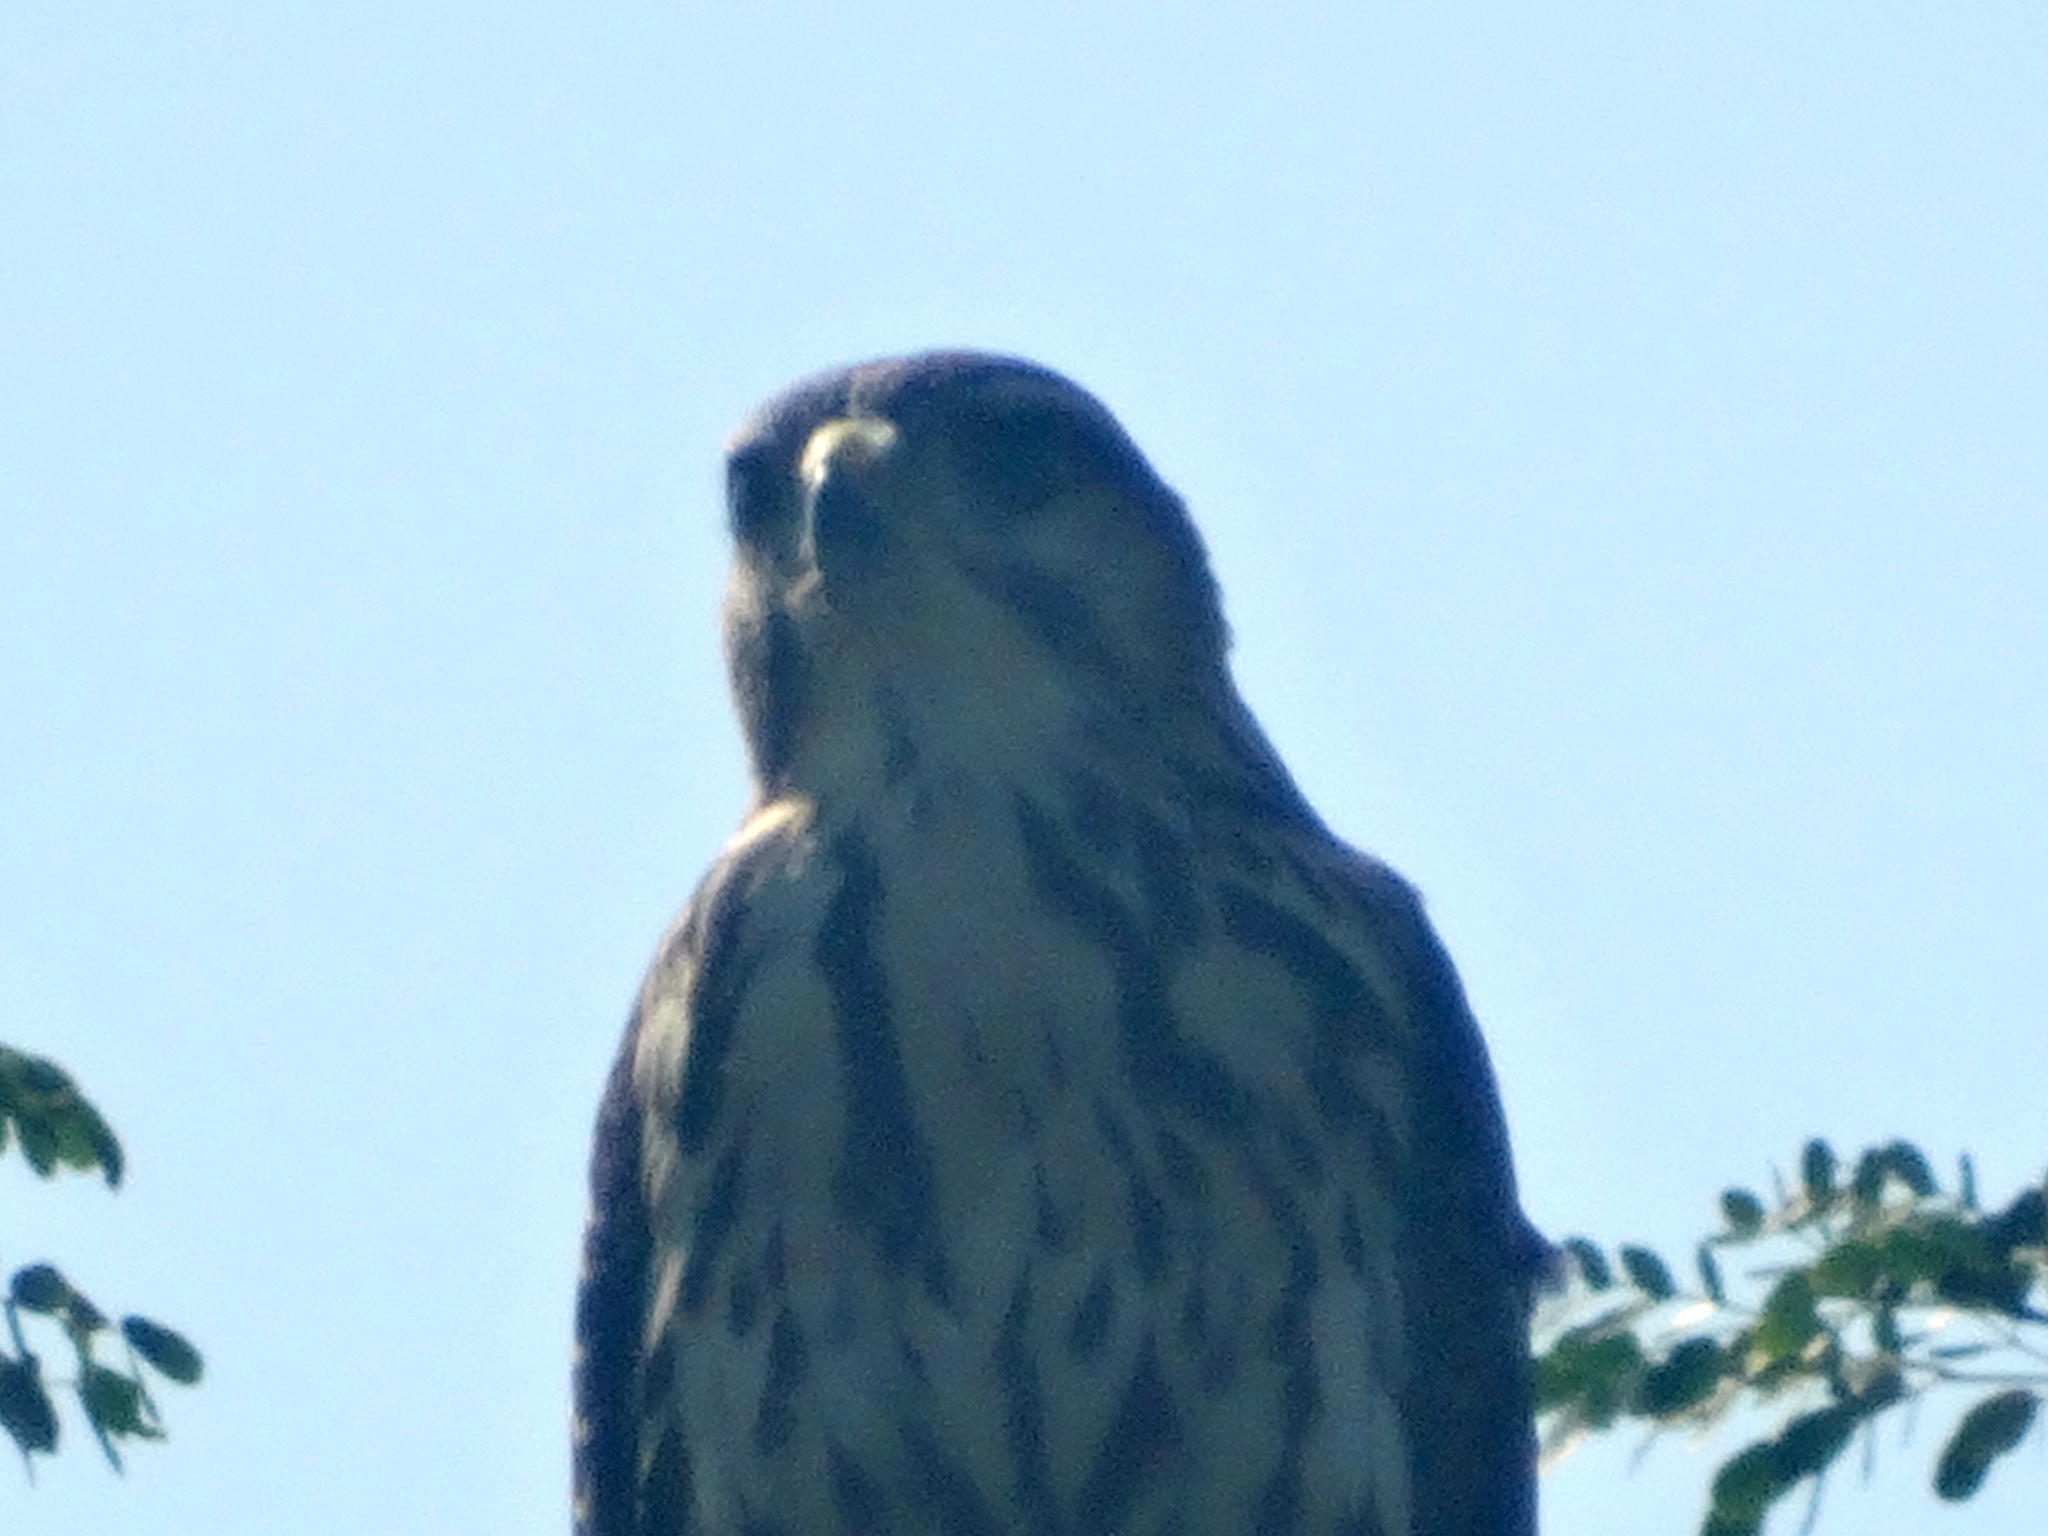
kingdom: Animalia
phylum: Chordata
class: Aves
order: Accipitriformes
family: Accipitridae
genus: Buteo
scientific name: Buteo nitidus
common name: Grey-lined hawk
